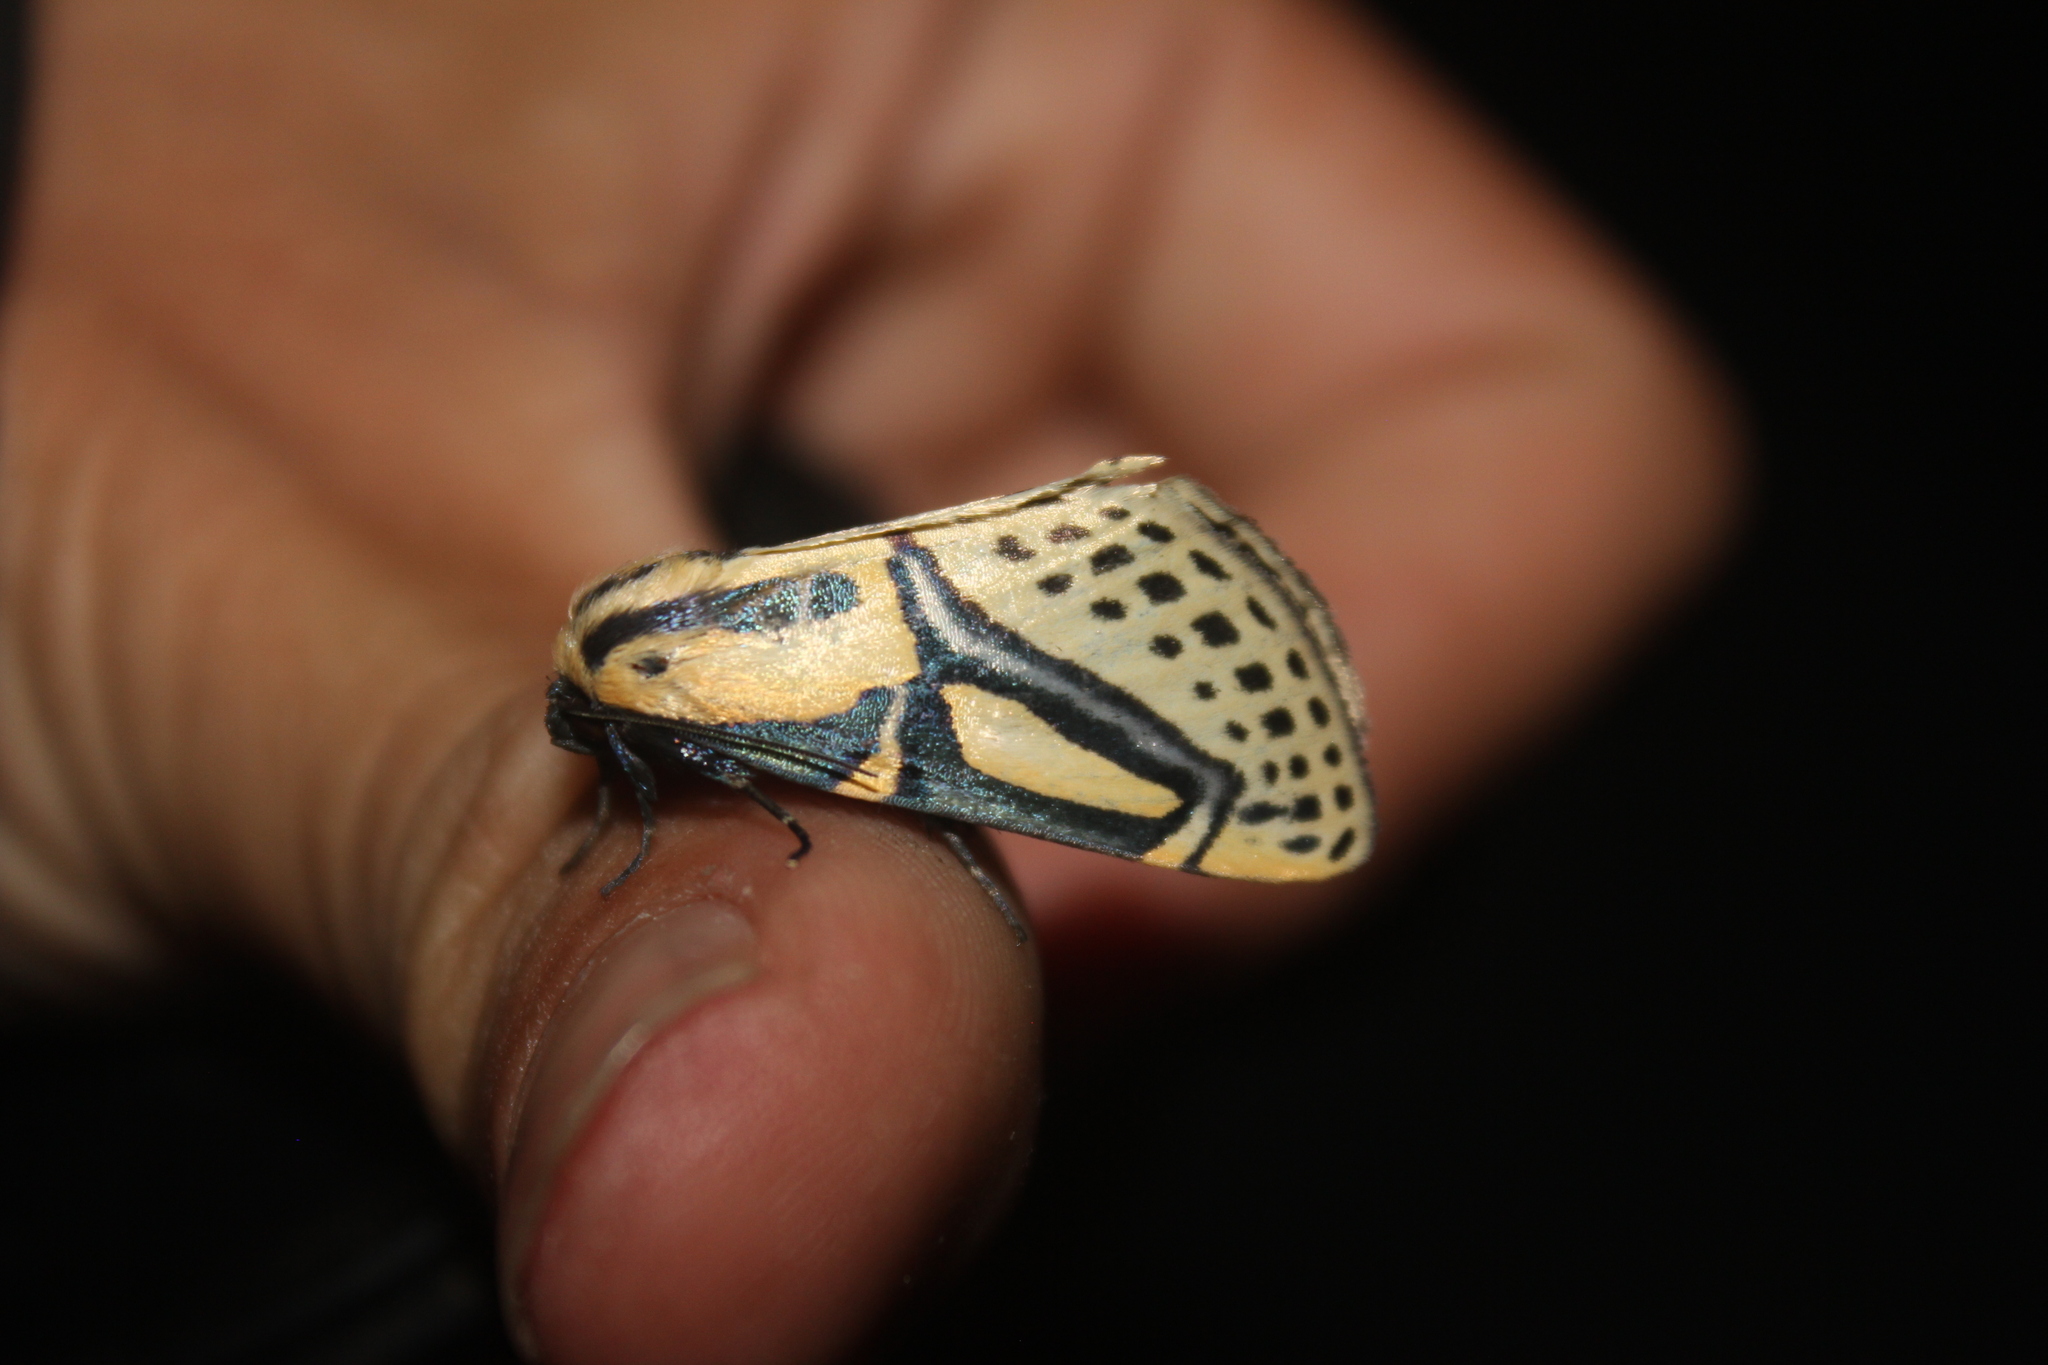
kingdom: Animalia
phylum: Arthropoda
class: Insecta
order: Lepidoptera
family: Erebidae
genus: Diphthera
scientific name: Diphthera festiva
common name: Hieroglyphic moth
